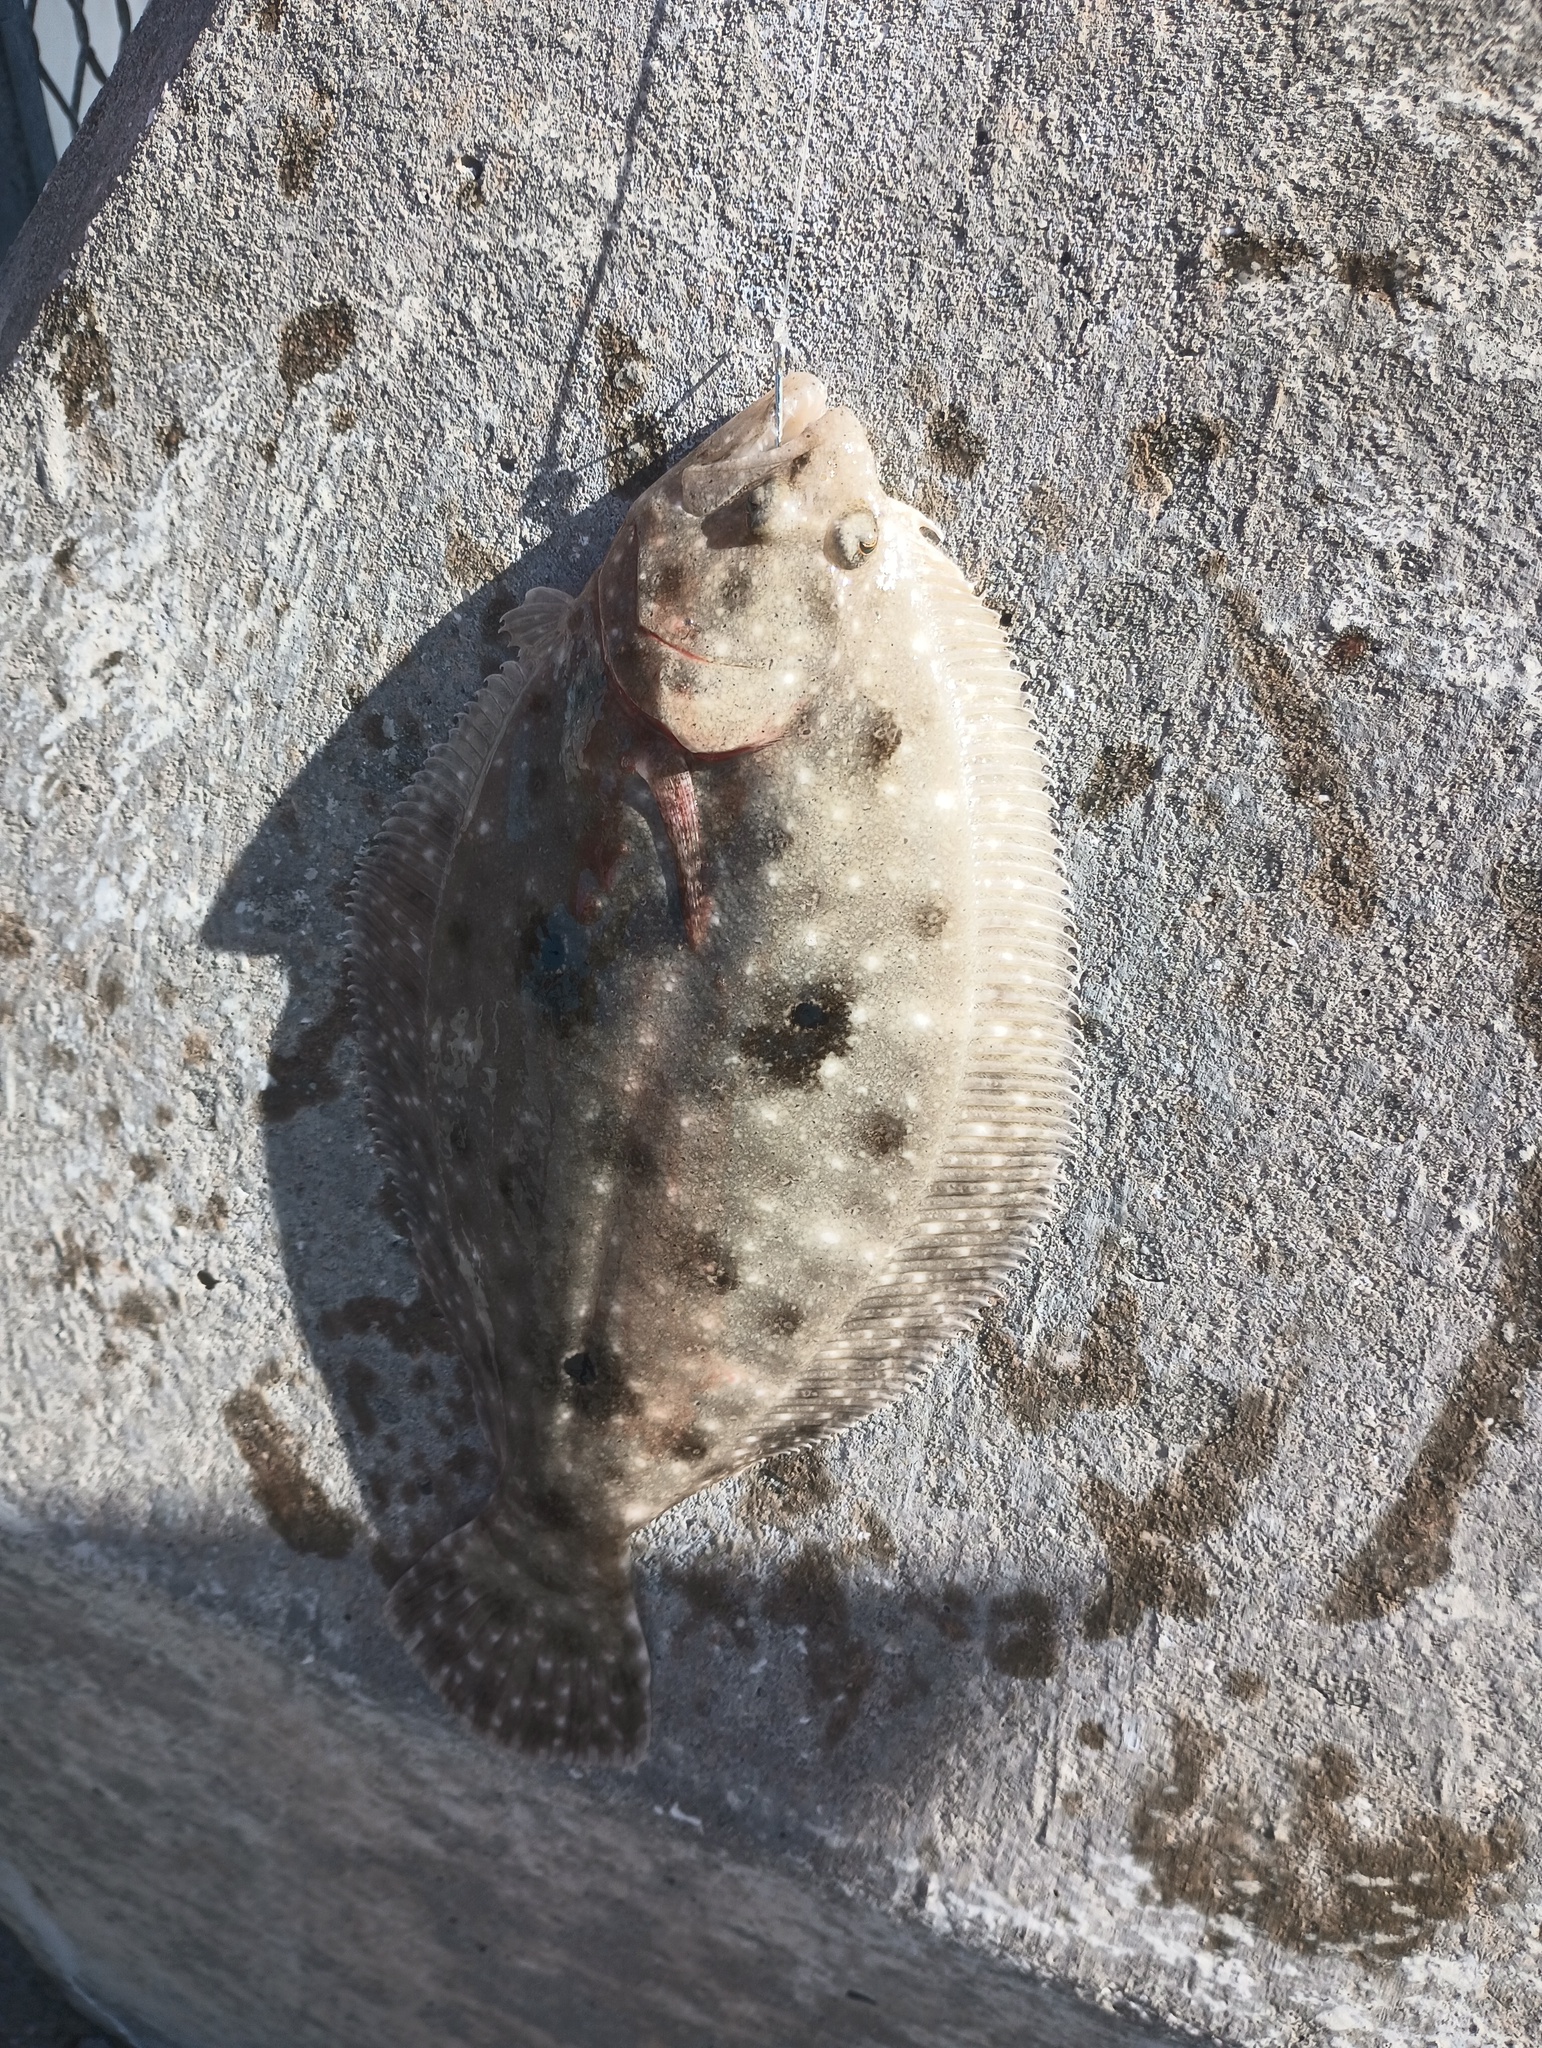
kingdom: Animalia
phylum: Chordata
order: Pleuronectiformes
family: Paralichthyidae
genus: Paralichthys
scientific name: Paralichthys albigutta
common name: Gulf flounder
